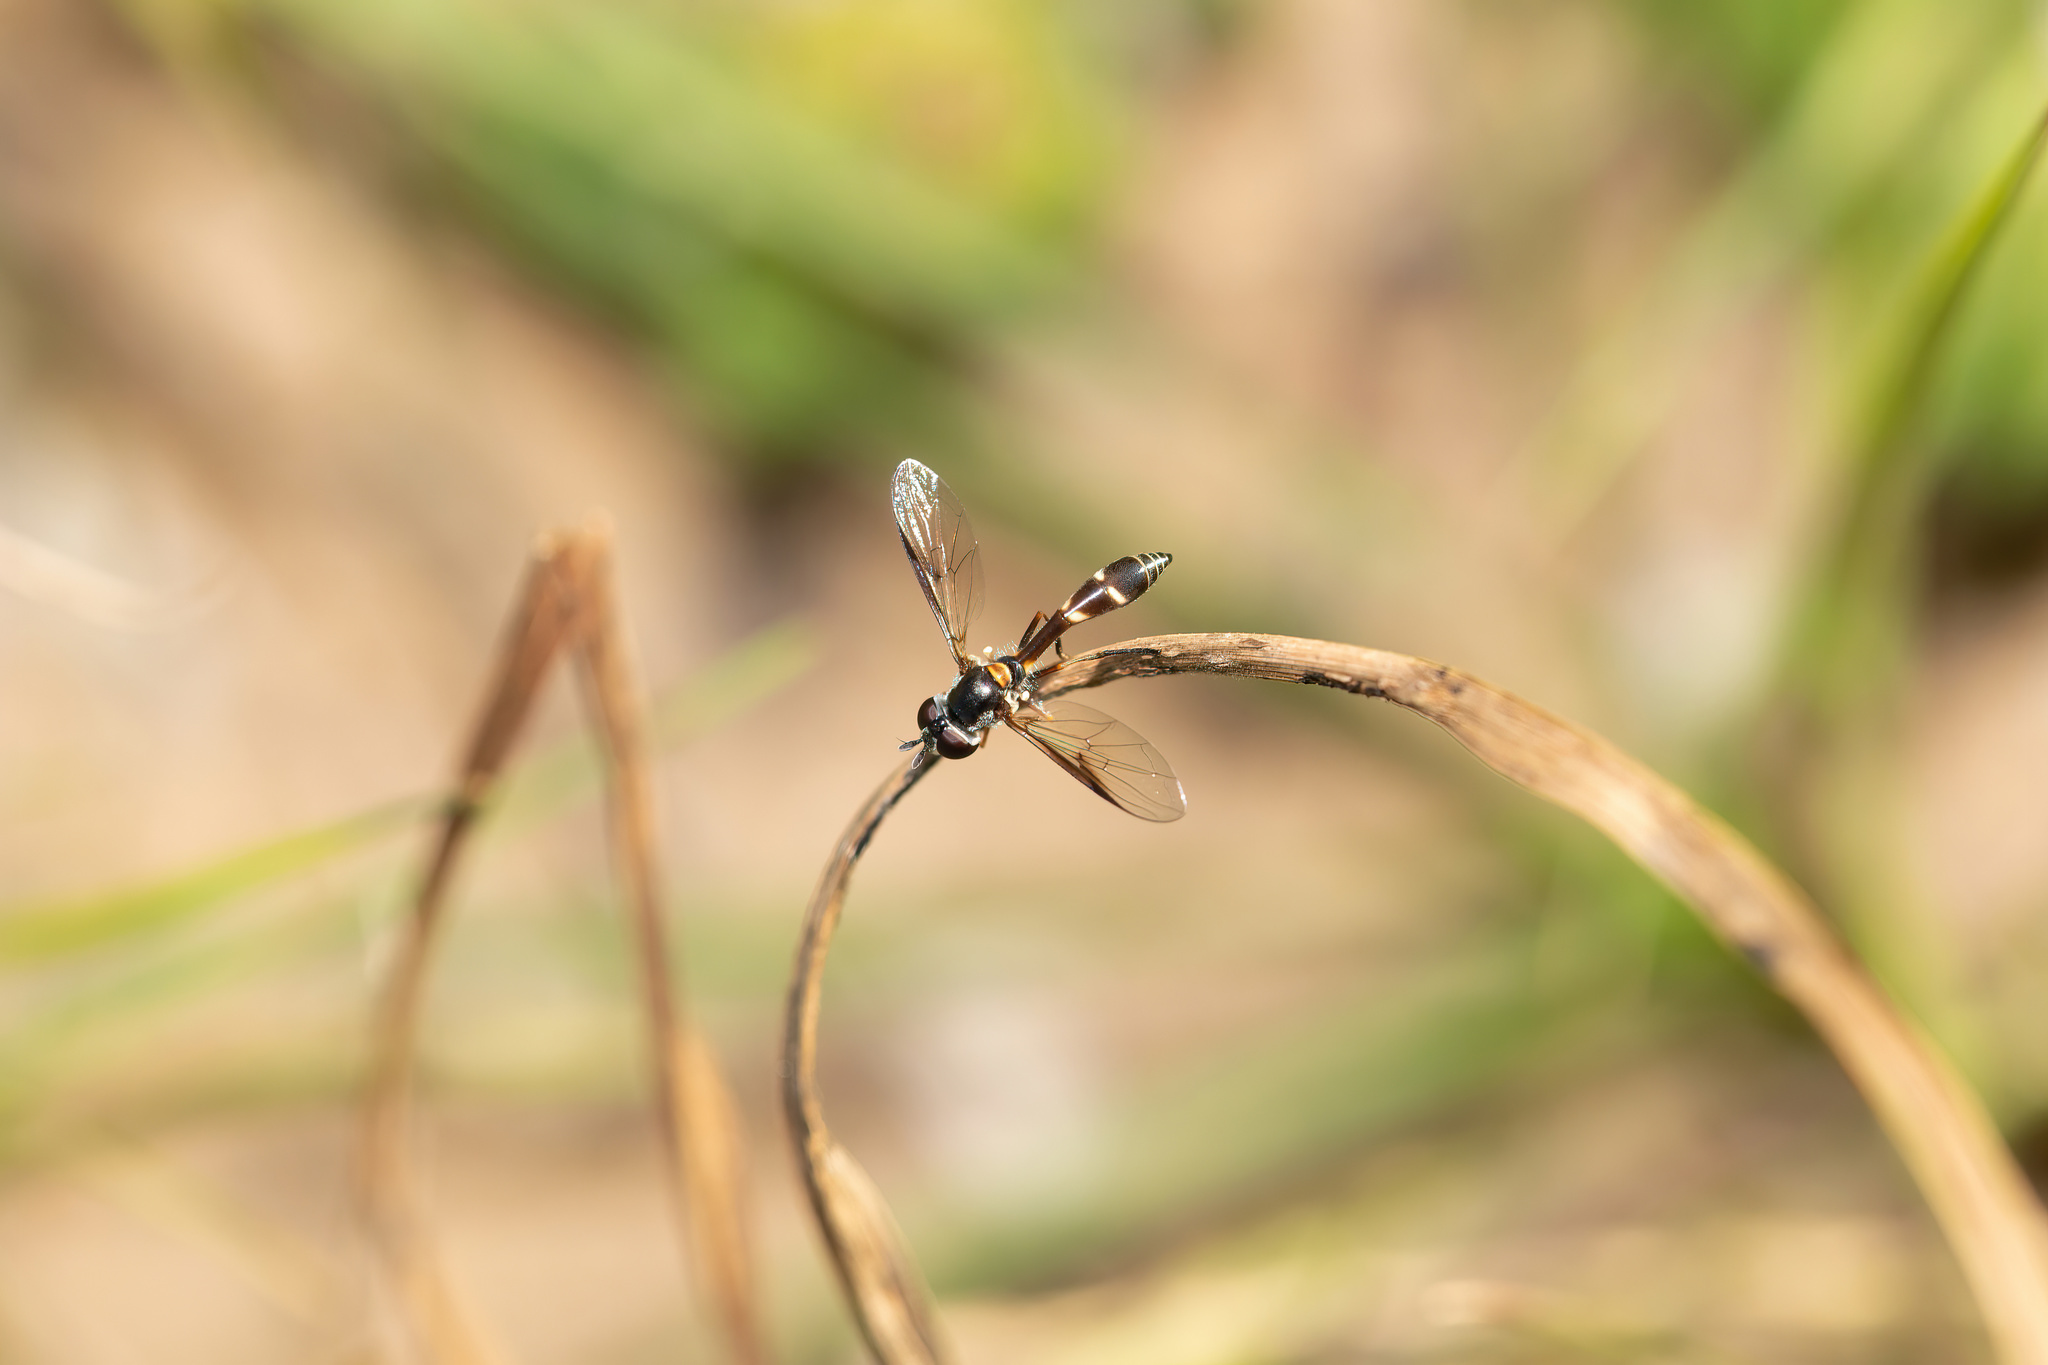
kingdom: Animalia
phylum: Arthropoda
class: Insecta
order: Diptera
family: Syrphidae
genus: Dioprosopa
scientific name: Dioprosopa clavatus
